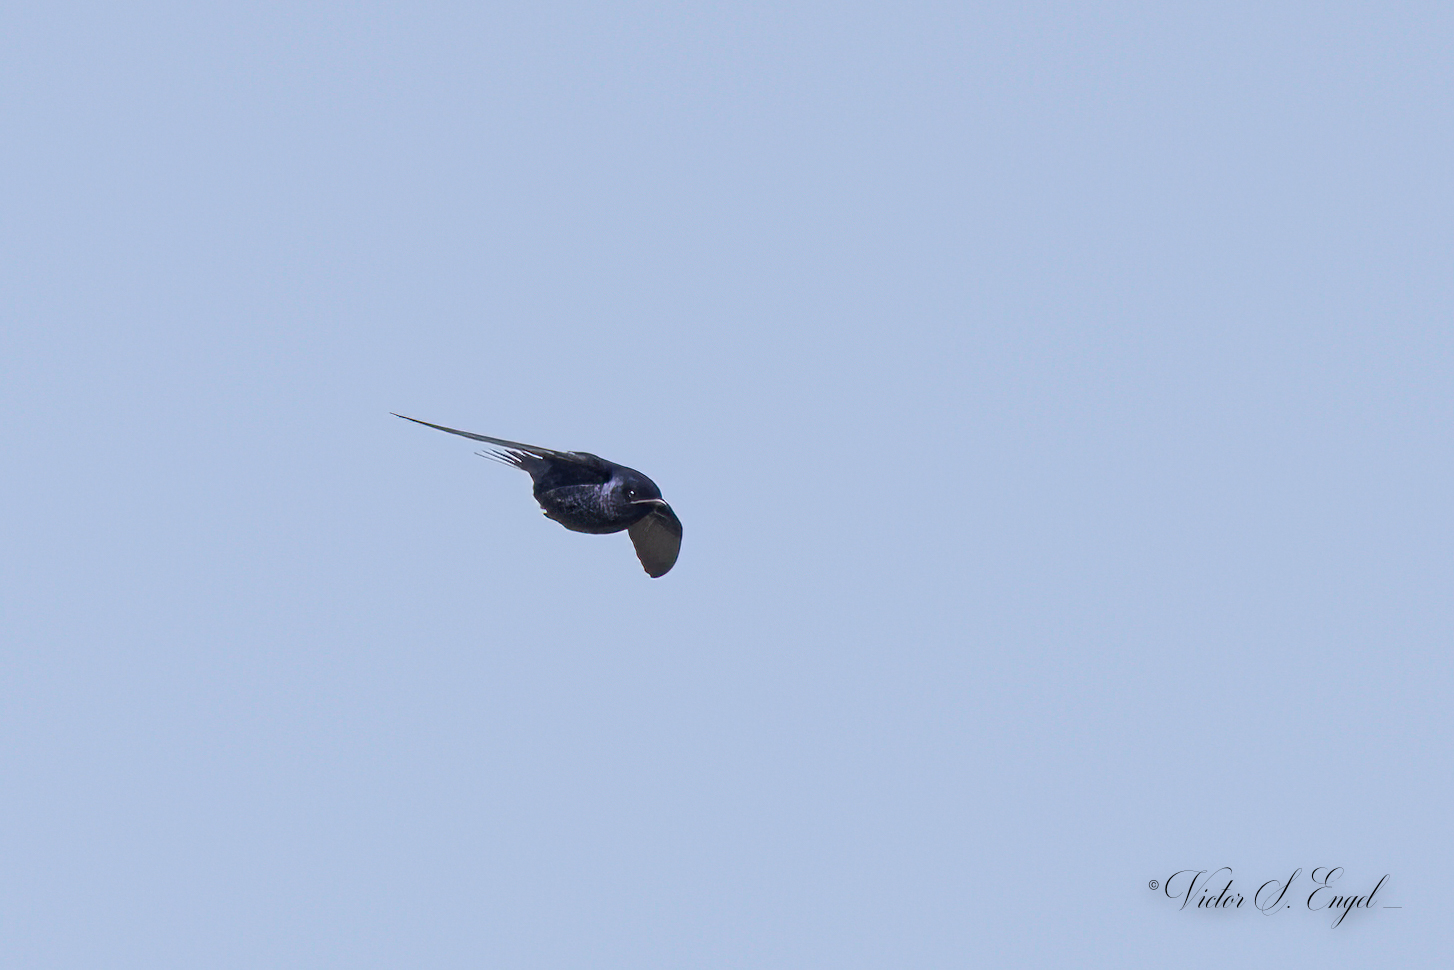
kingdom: Animalia
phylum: Chordata
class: Aves
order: Passeriformes
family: Hirundinidae
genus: Progne
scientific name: Progne subis
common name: Purple martin
